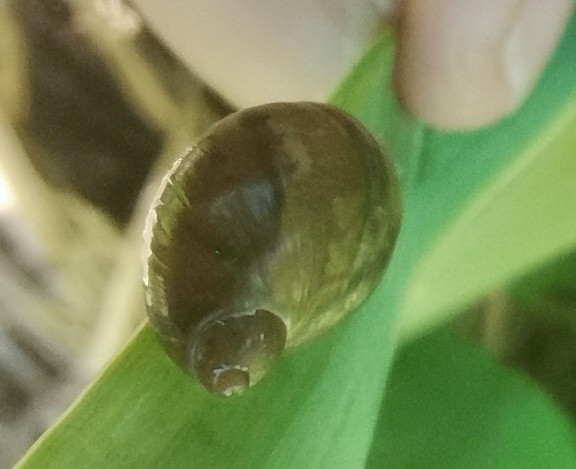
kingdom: Animalia
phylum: Mollusca
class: Gastropoda
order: Stylommatophora
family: Succineidae
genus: Succinea
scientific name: Succinea putris
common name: European ambersnail
